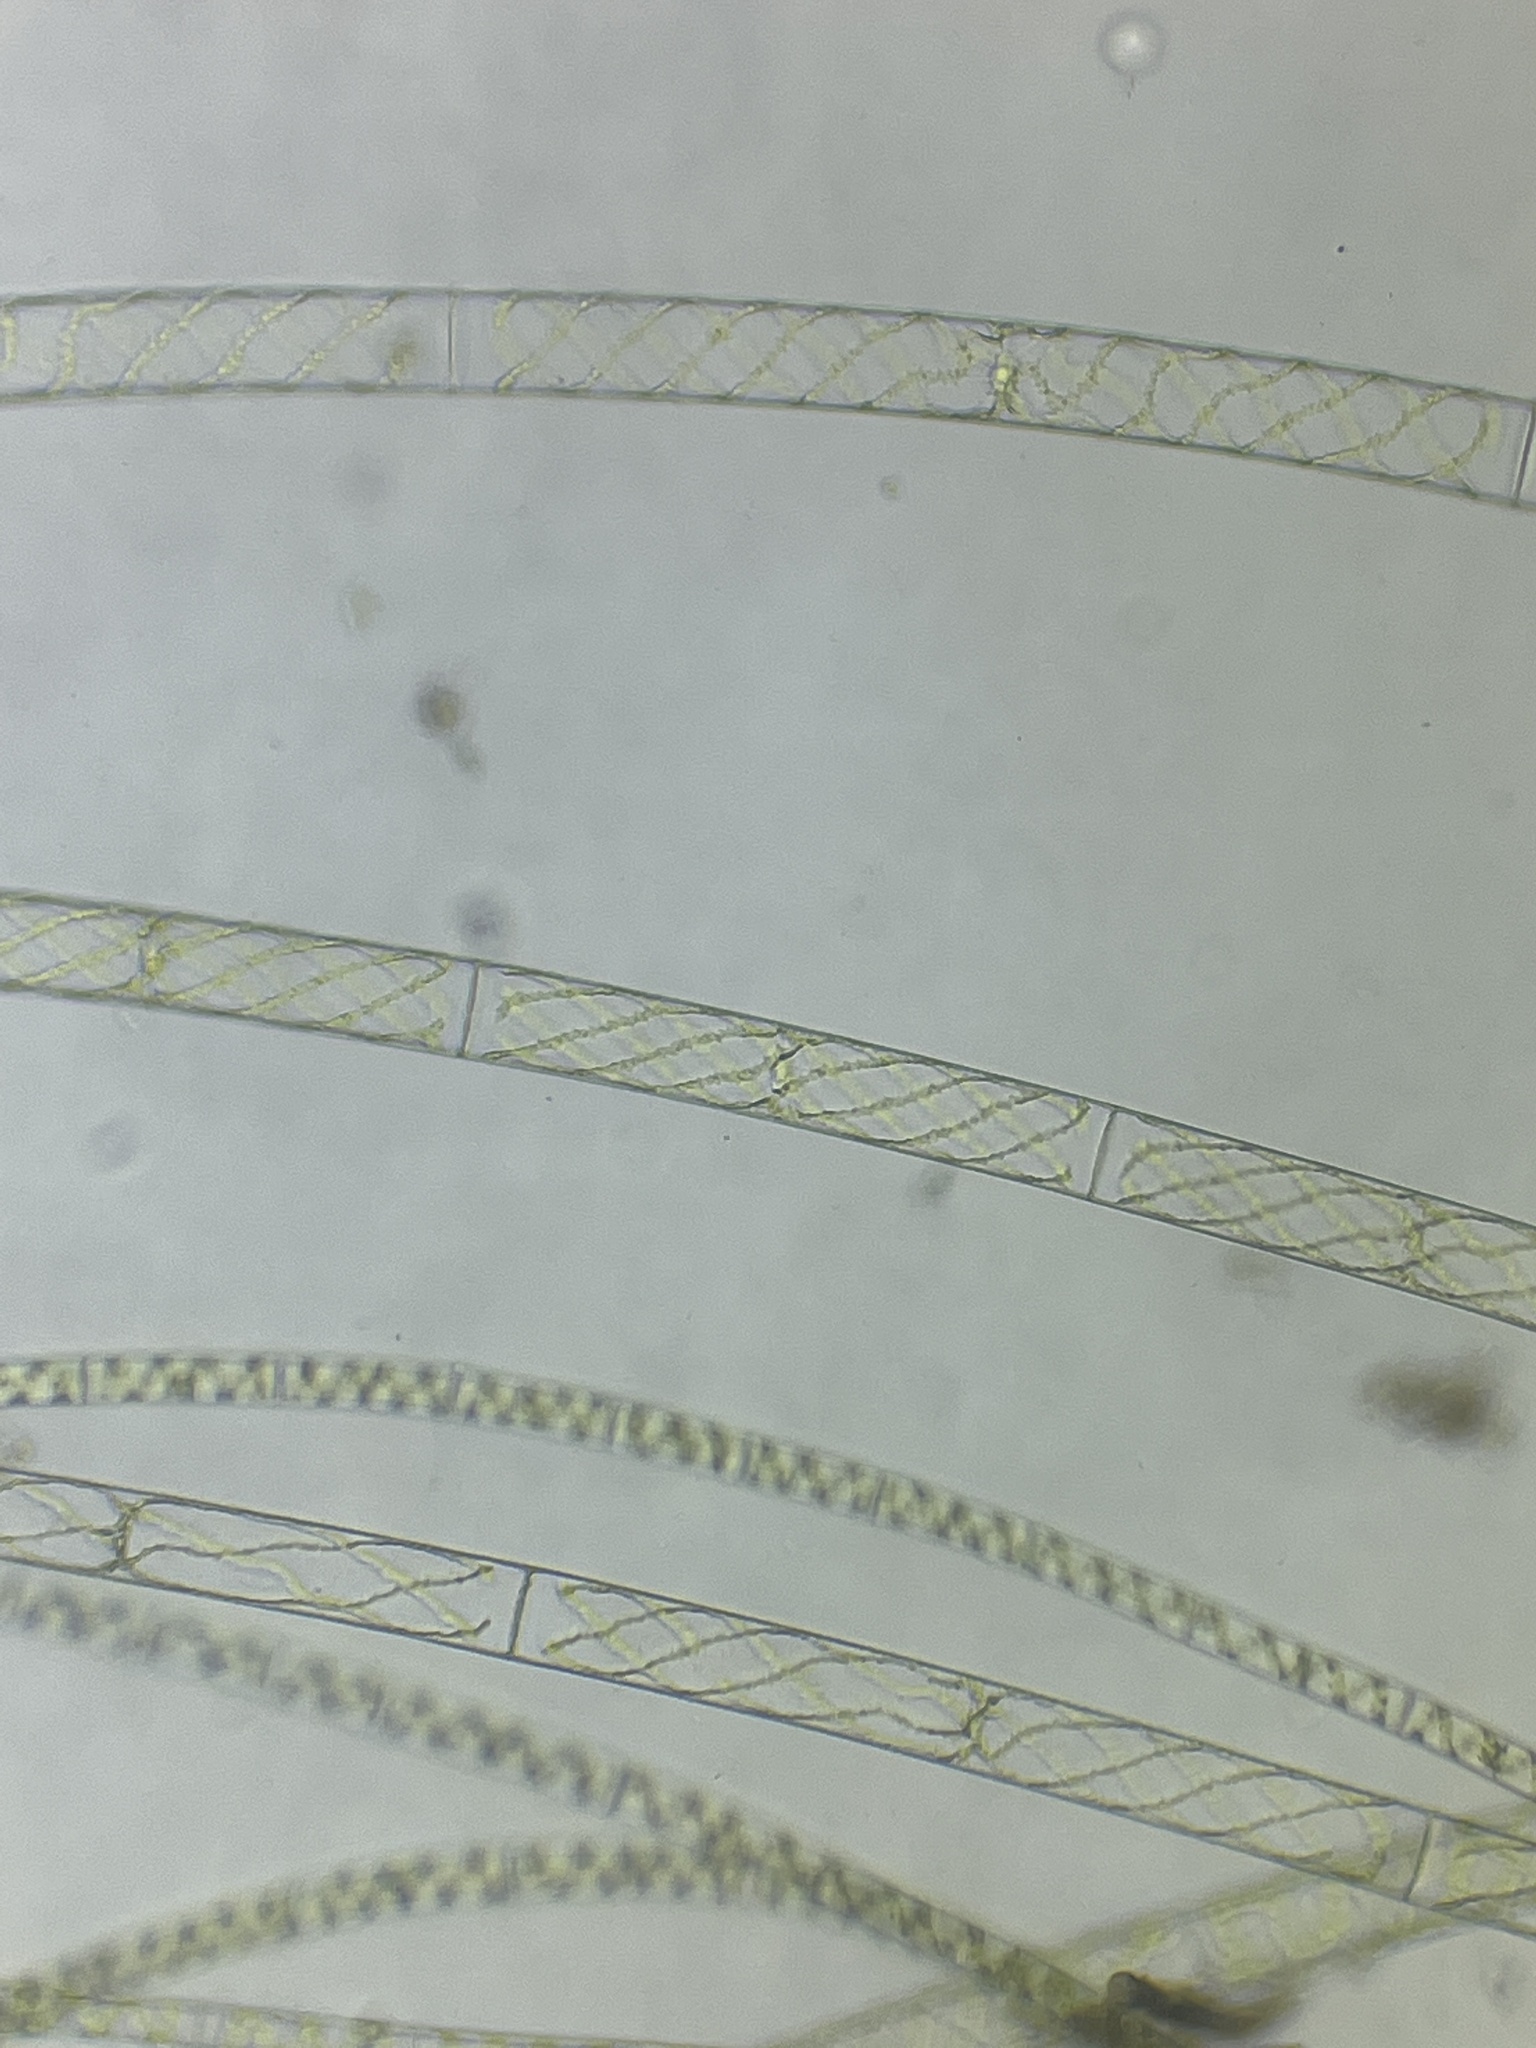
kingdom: Plantae
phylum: Charophyta
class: Zygnematophyceae
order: Zygnematales
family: Zygnemataceae
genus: Spirogyra
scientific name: Spirogyra
